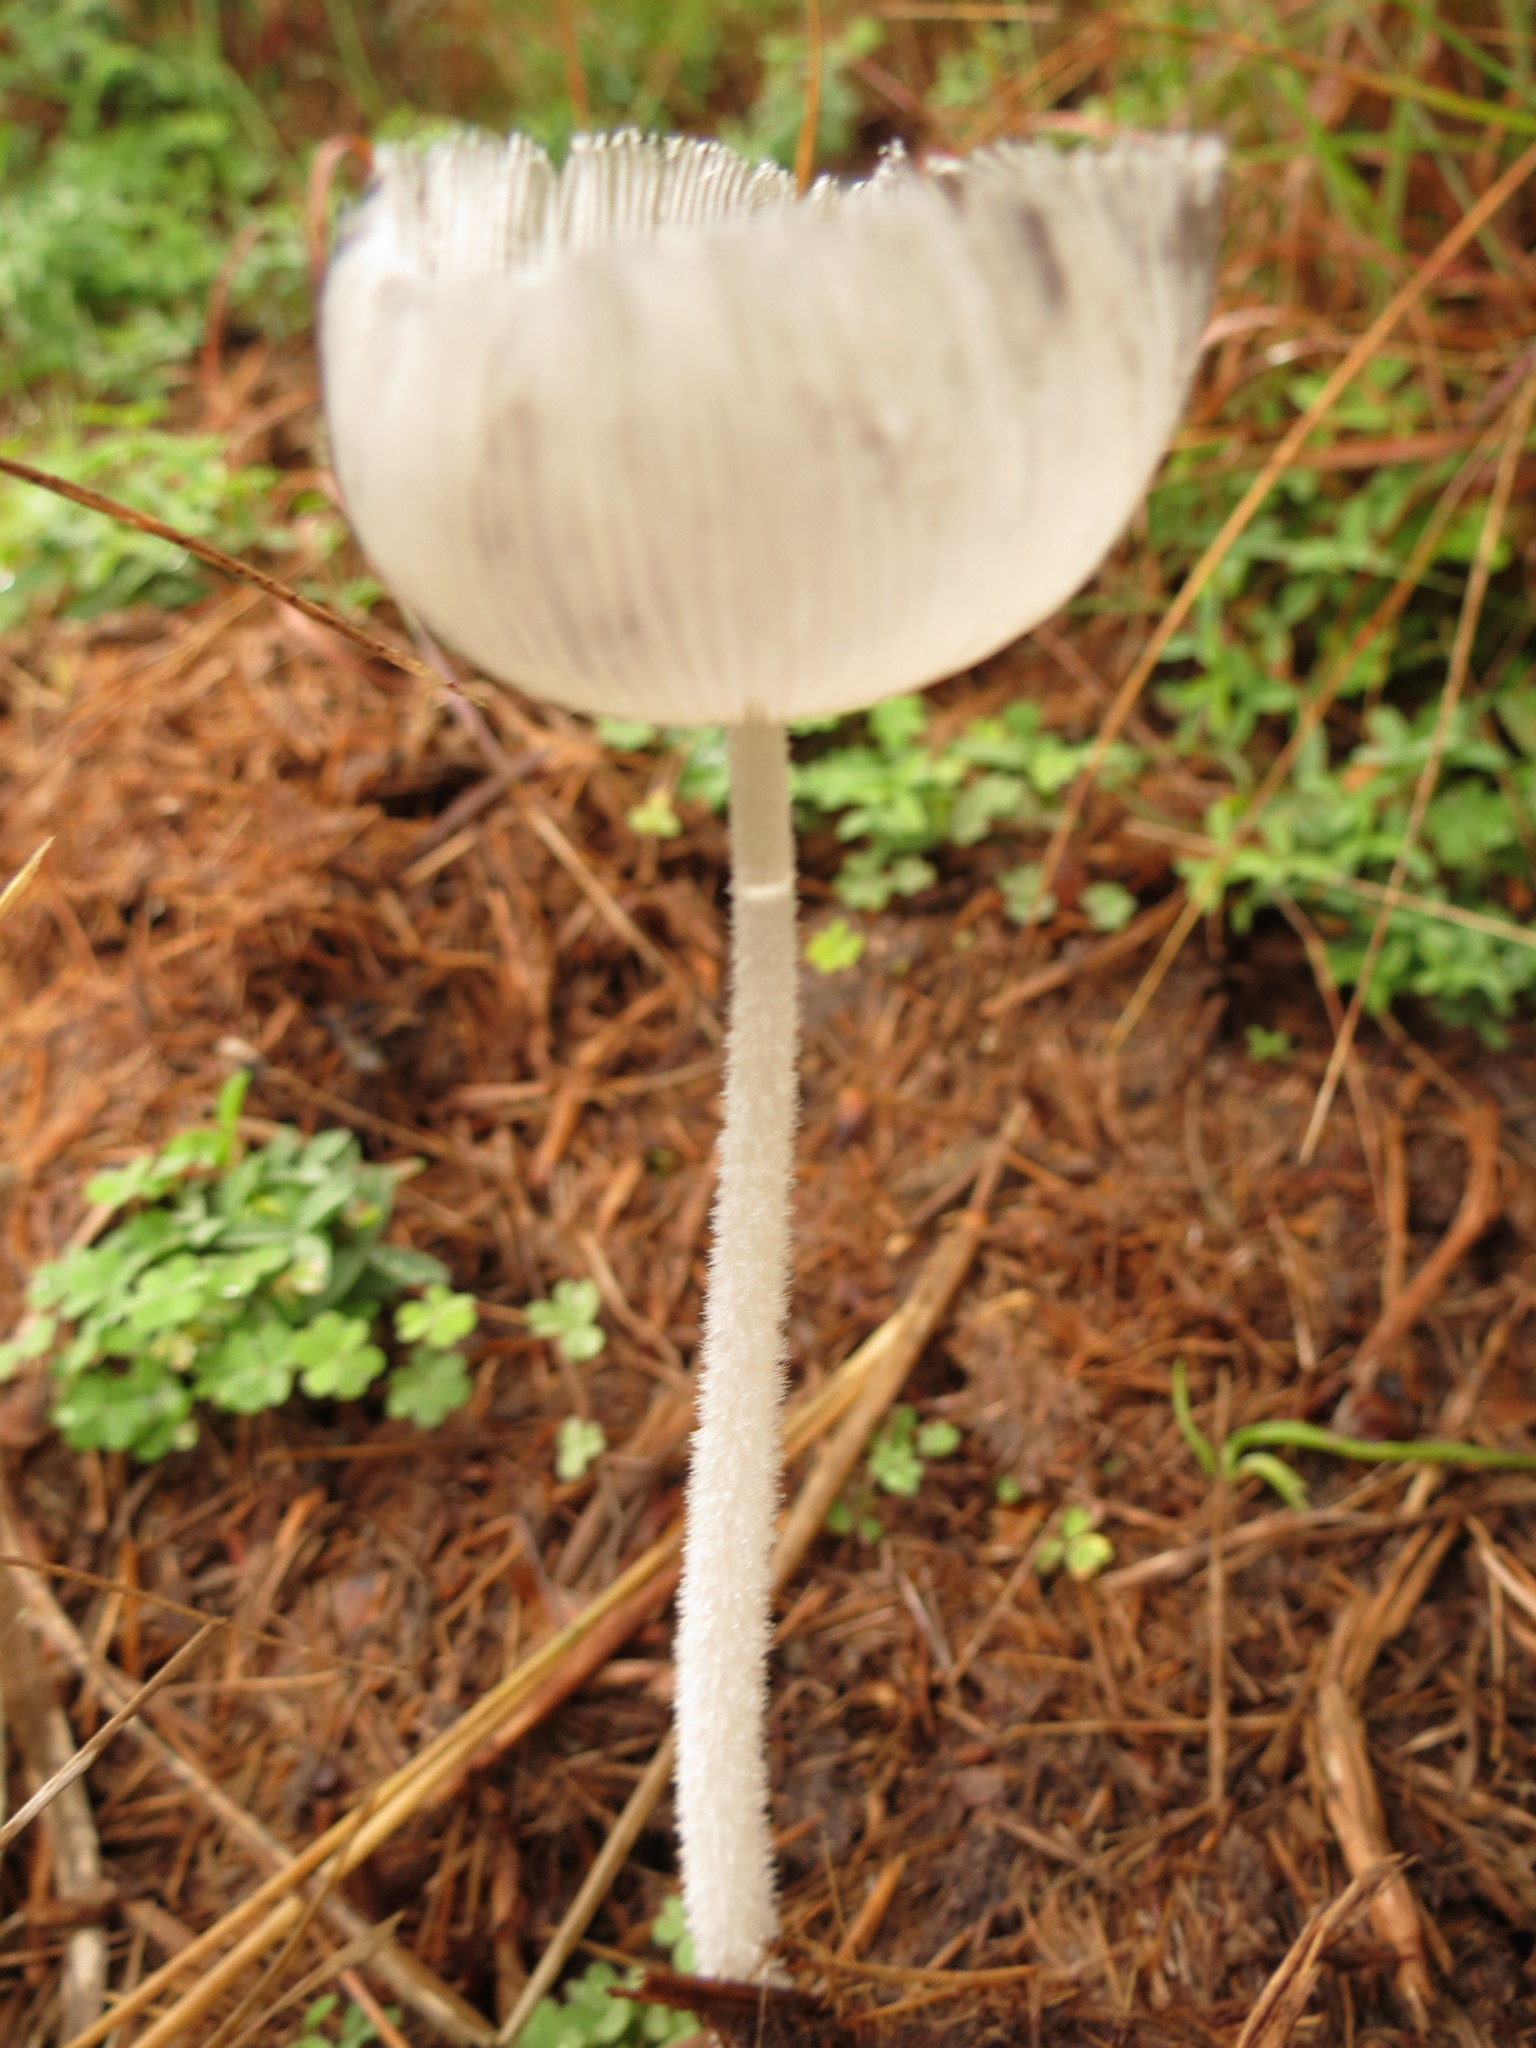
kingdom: Fungi
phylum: Basidiomycota
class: Agaricomycetes
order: Agaricales
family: Psathyrellaceae
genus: Coprinopsis
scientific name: Coprinopsis lagopus
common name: Hare'sfoot inkcap
